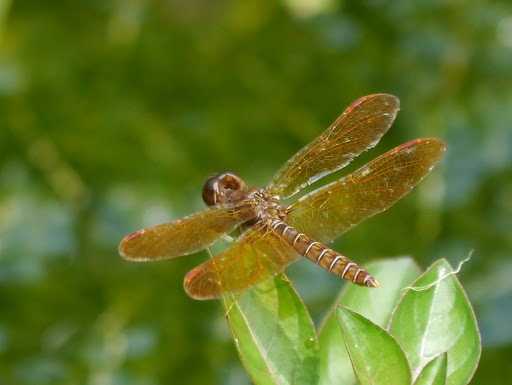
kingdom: Animalia
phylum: Arthropoda
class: Insecta
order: Odonata
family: Libellulidae
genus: Perithemis
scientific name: Perithemis tenera
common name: Eastern amberwing
